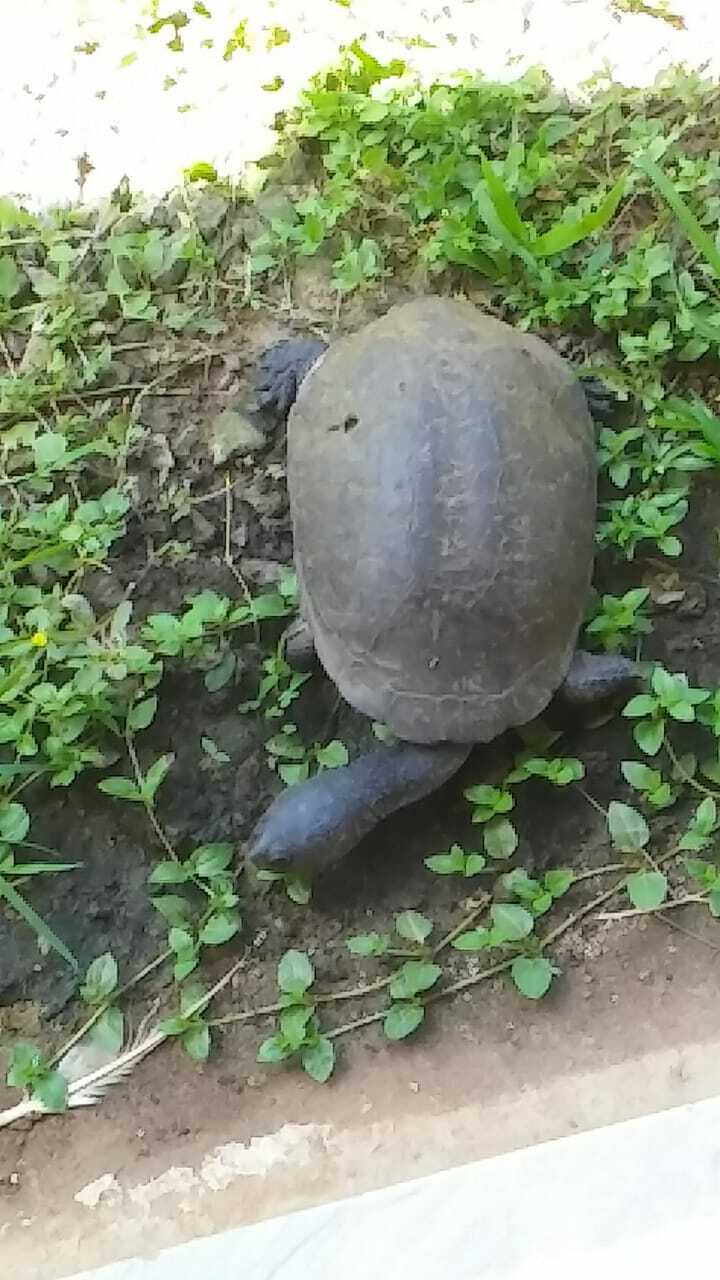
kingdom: Animalia
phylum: Chordata
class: Testudines
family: Chelidae
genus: Acanthochelys
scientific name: Acanthochelys radiolata
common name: Brazilian radiolated swamp turtle
